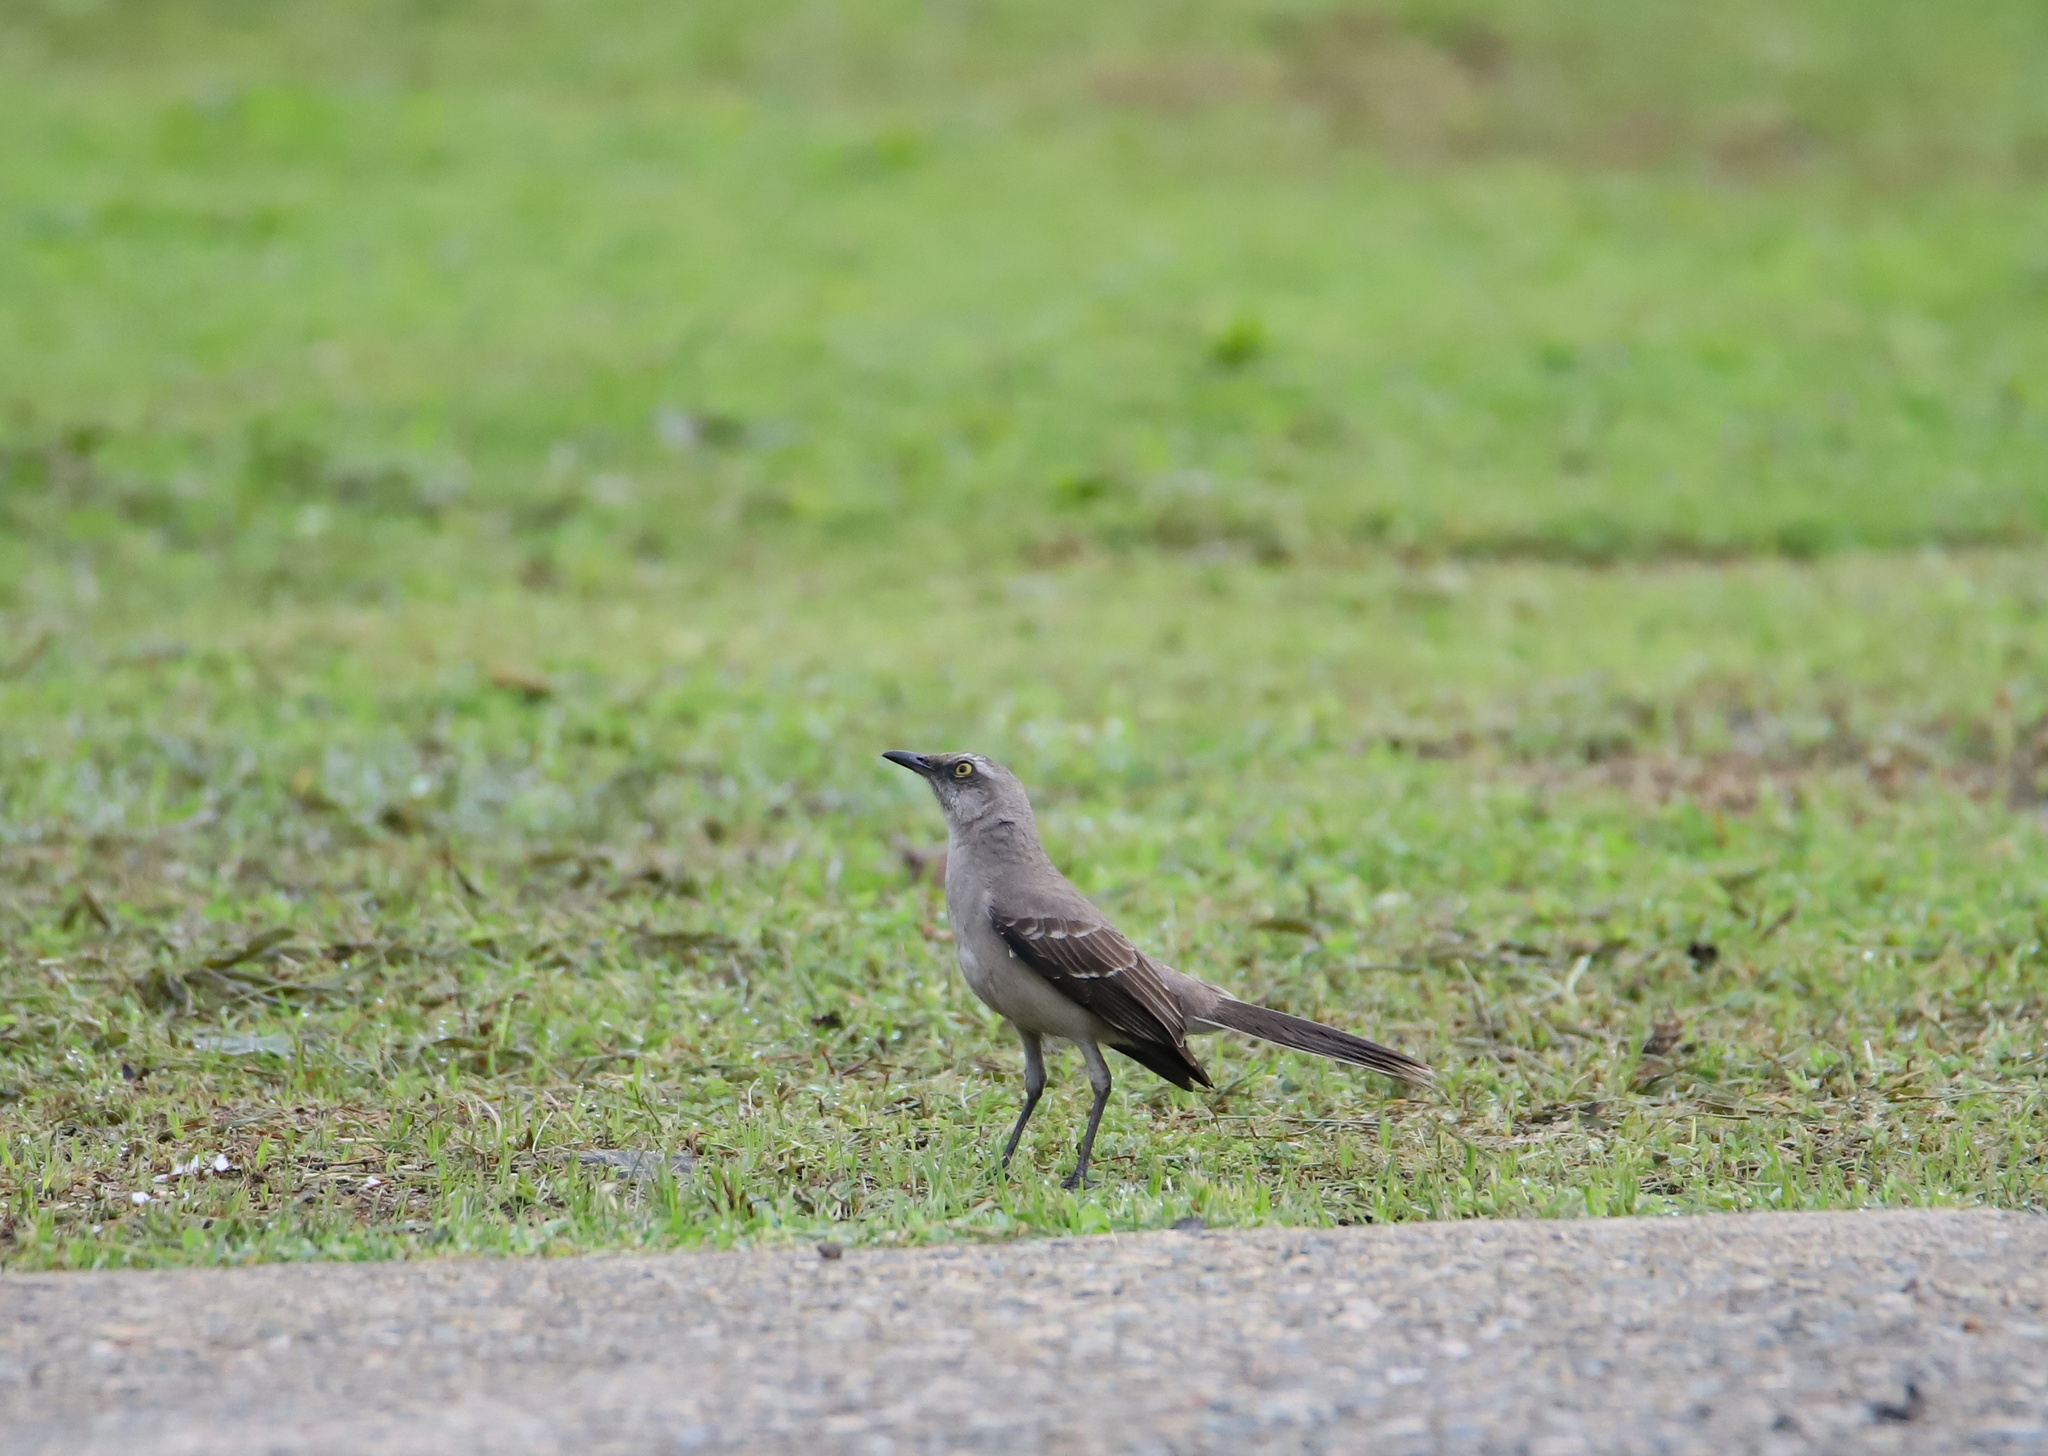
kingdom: Animalia
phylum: Chordata
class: Aves
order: Passeriformes
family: Mimidae
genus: Mimus
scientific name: Mimus gilvus
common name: Tropical mockingbird
